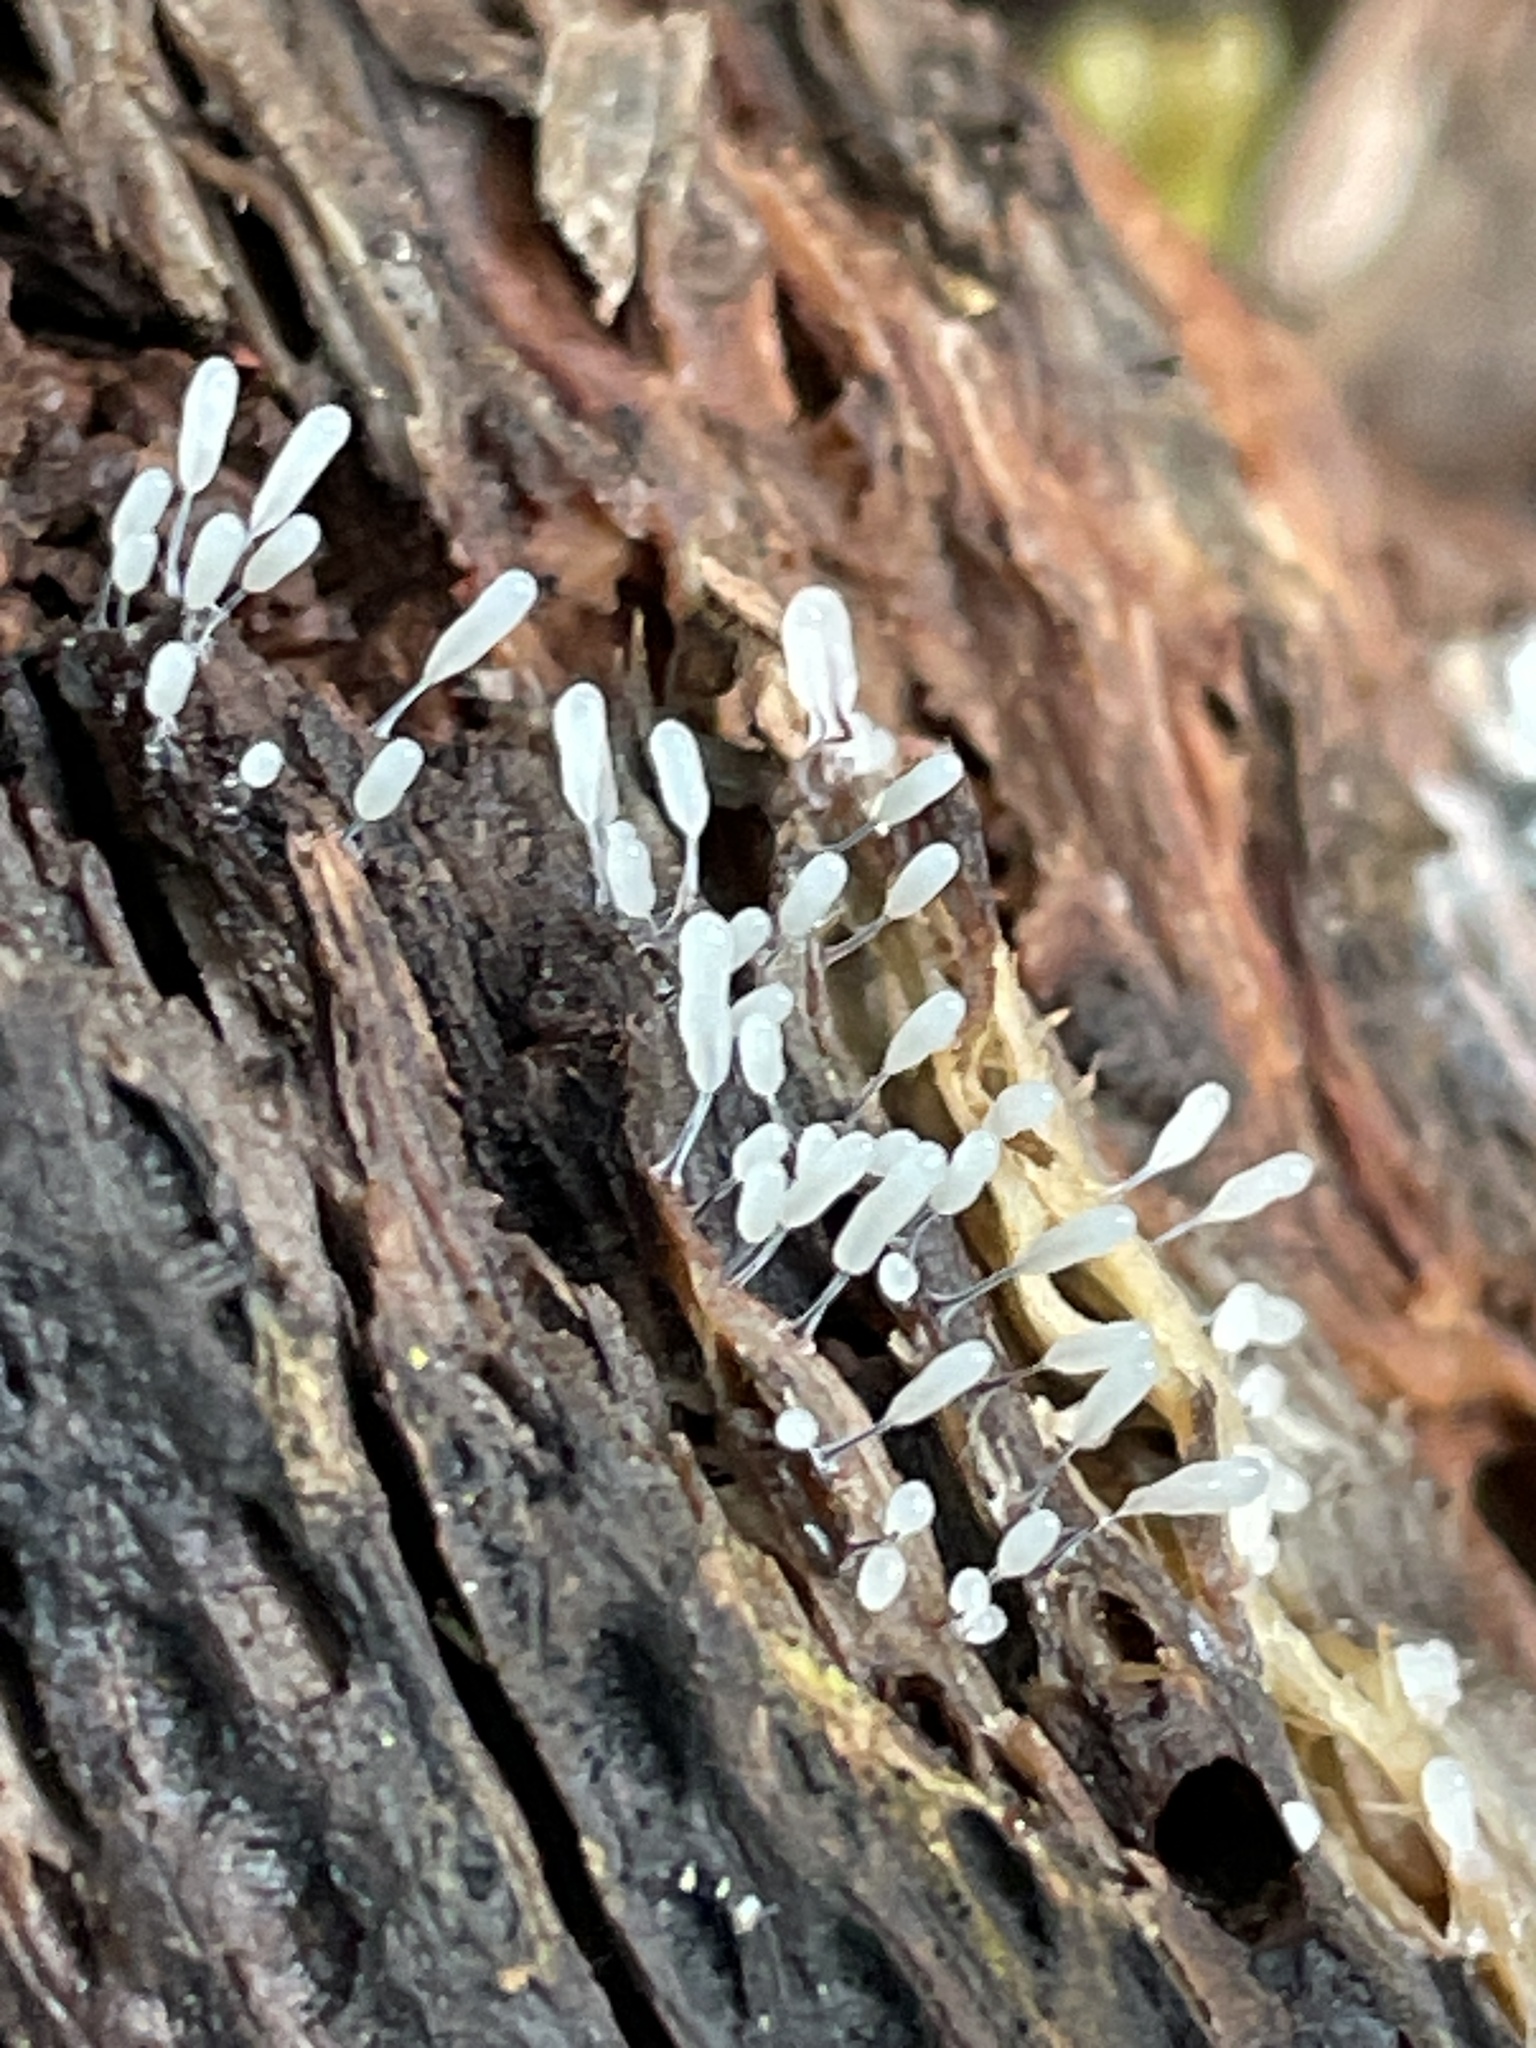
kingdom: Protozoa
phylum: Mycetozoa
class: Myxomycetes
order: Stemonitidales
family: Stemonitidaceae
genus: Stemonitopsis
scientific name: Stemonitopsis typhina
